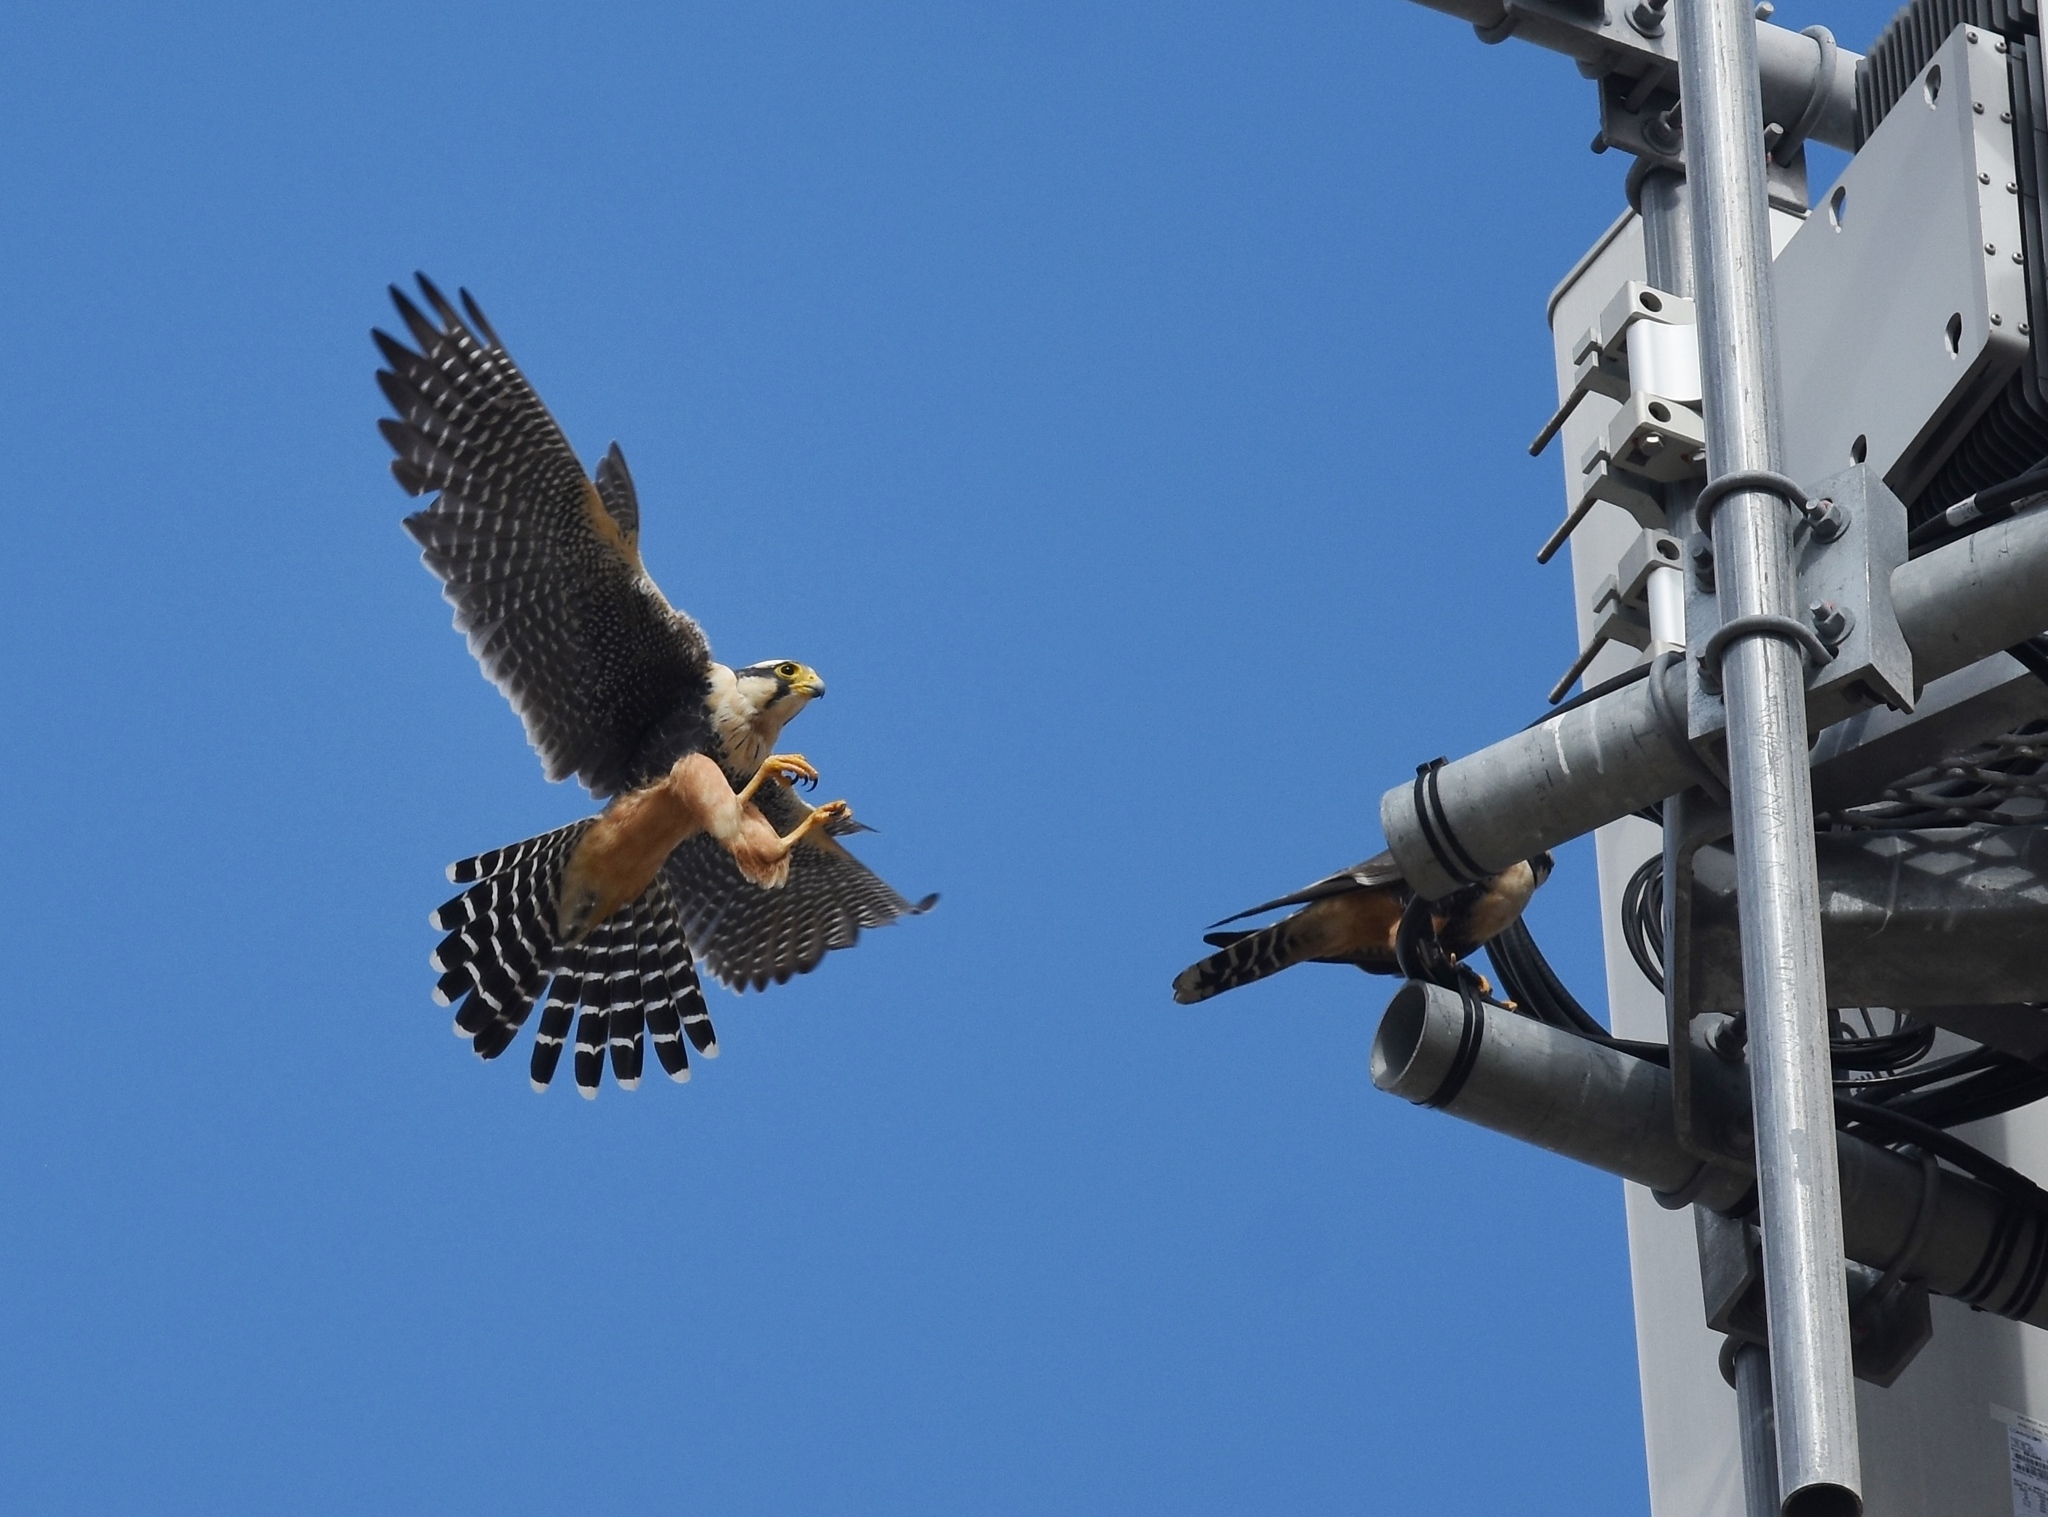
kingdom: Animalia
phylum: Chordata
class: Aves
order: Falconiformes
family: Falconidae
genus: Falco
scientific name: Falco femoralis
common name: Aplomado falcon
